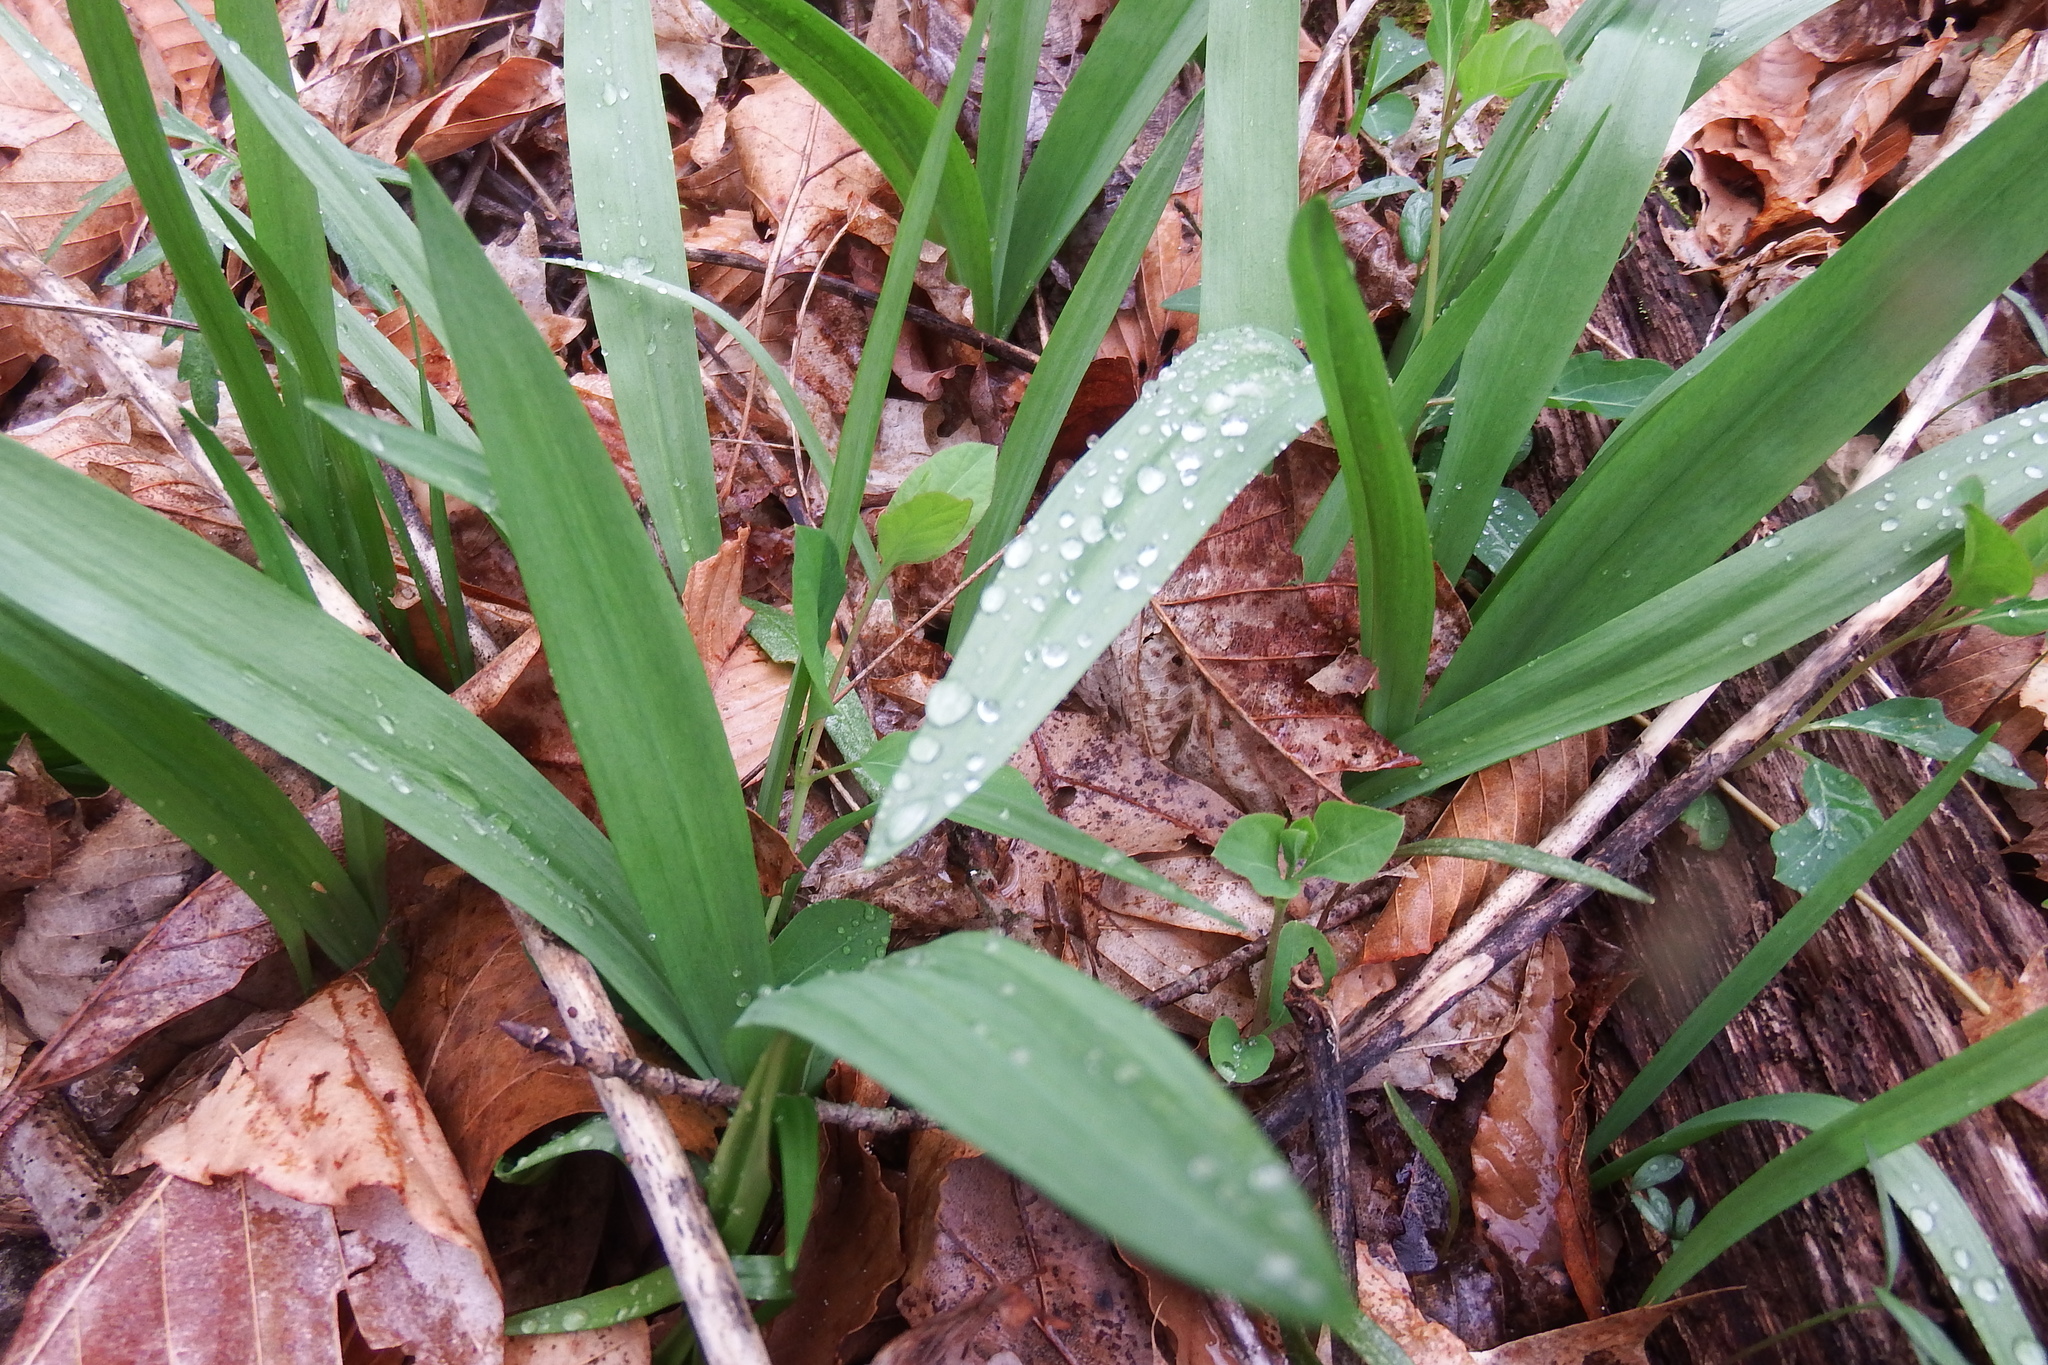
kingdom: Plantae
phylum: Tracheophyta
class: Liliopsida
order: Asparagales
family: Amaryllidaceae
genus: Allium
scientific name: Allium tricoccum
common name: Ramp
